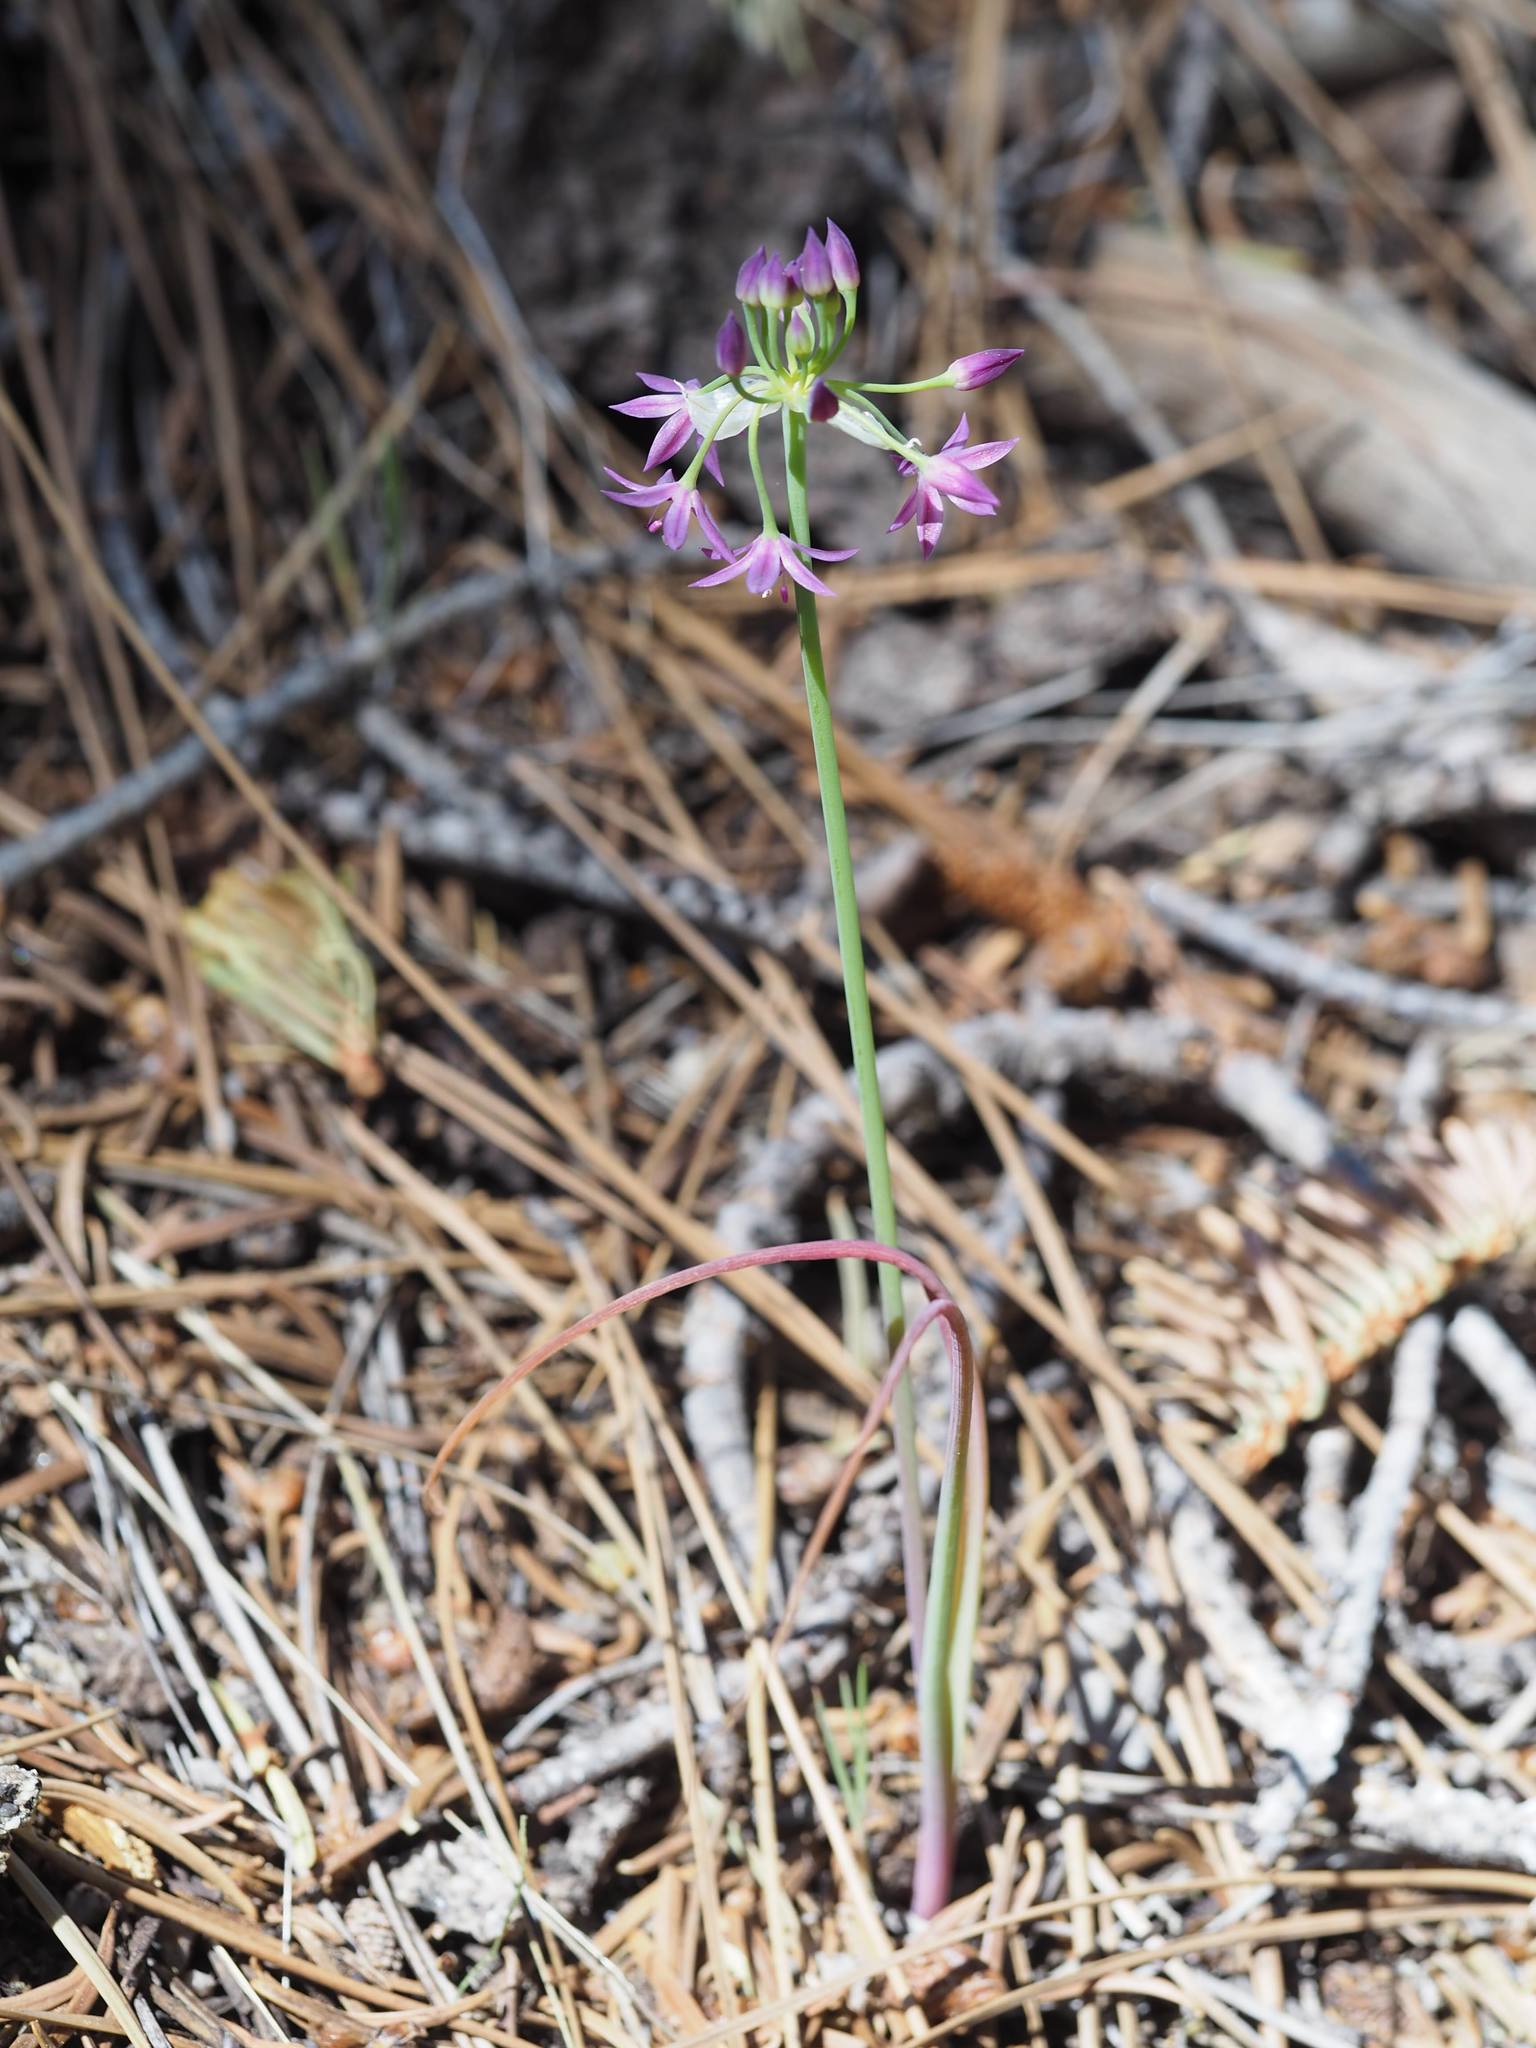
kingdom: Plantae
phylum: Tracheophyta
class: Liliopsida
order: Asparagales
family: Amaryllidaceae
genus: Allium
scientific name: Allium campanulatum
